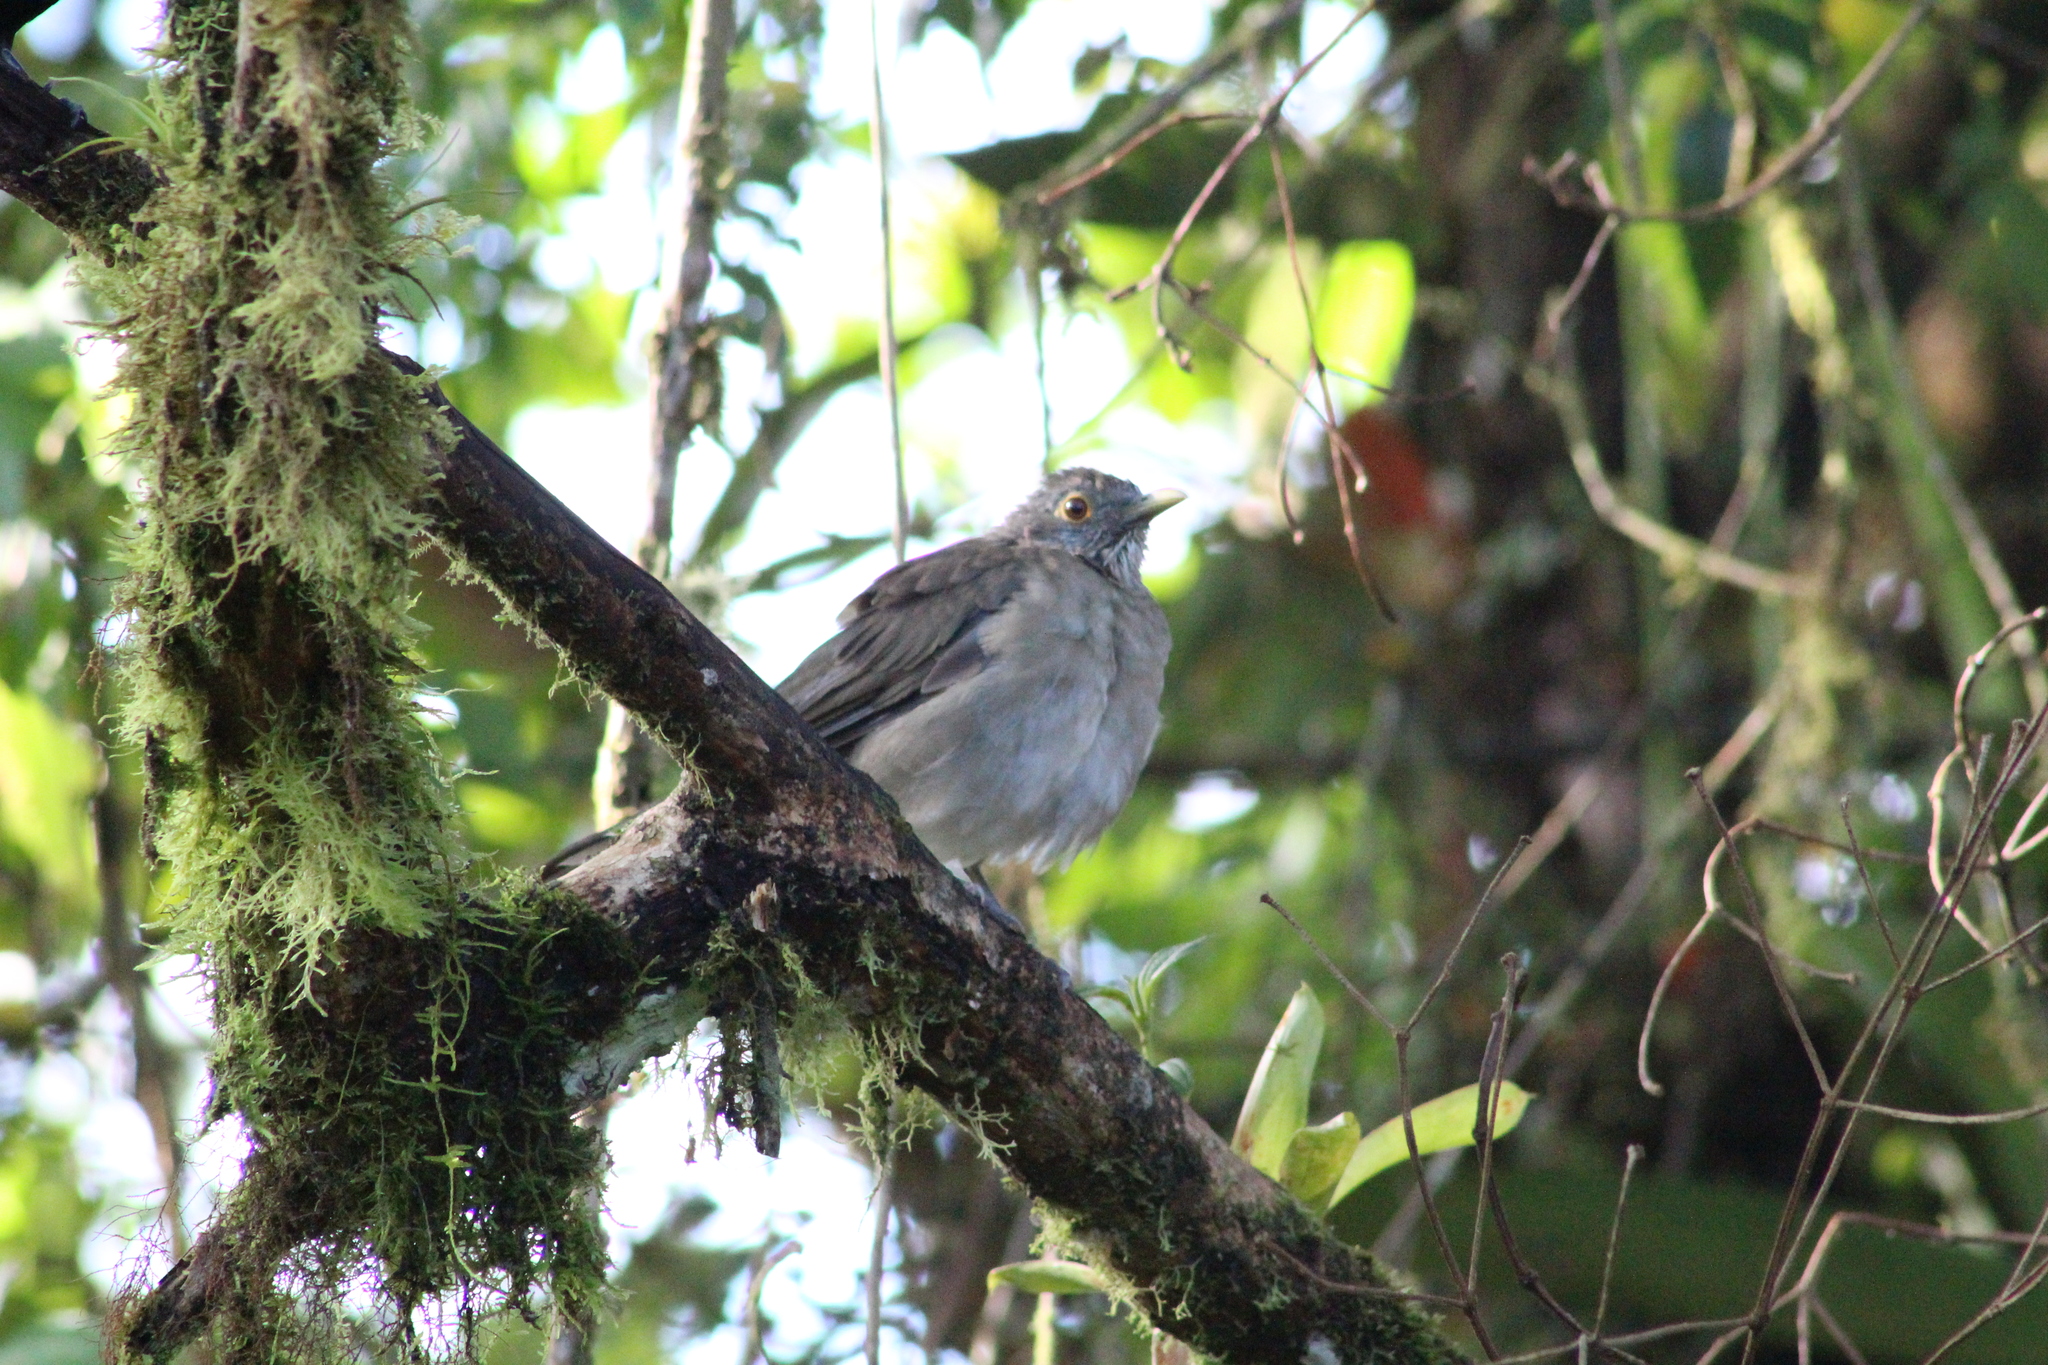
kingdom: Animalia
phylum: Chordata
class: Aves
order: Passeriformes
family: Turdidae
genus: Turdus
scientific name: Turdus maculirostris
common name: Ecuadorian thrush
